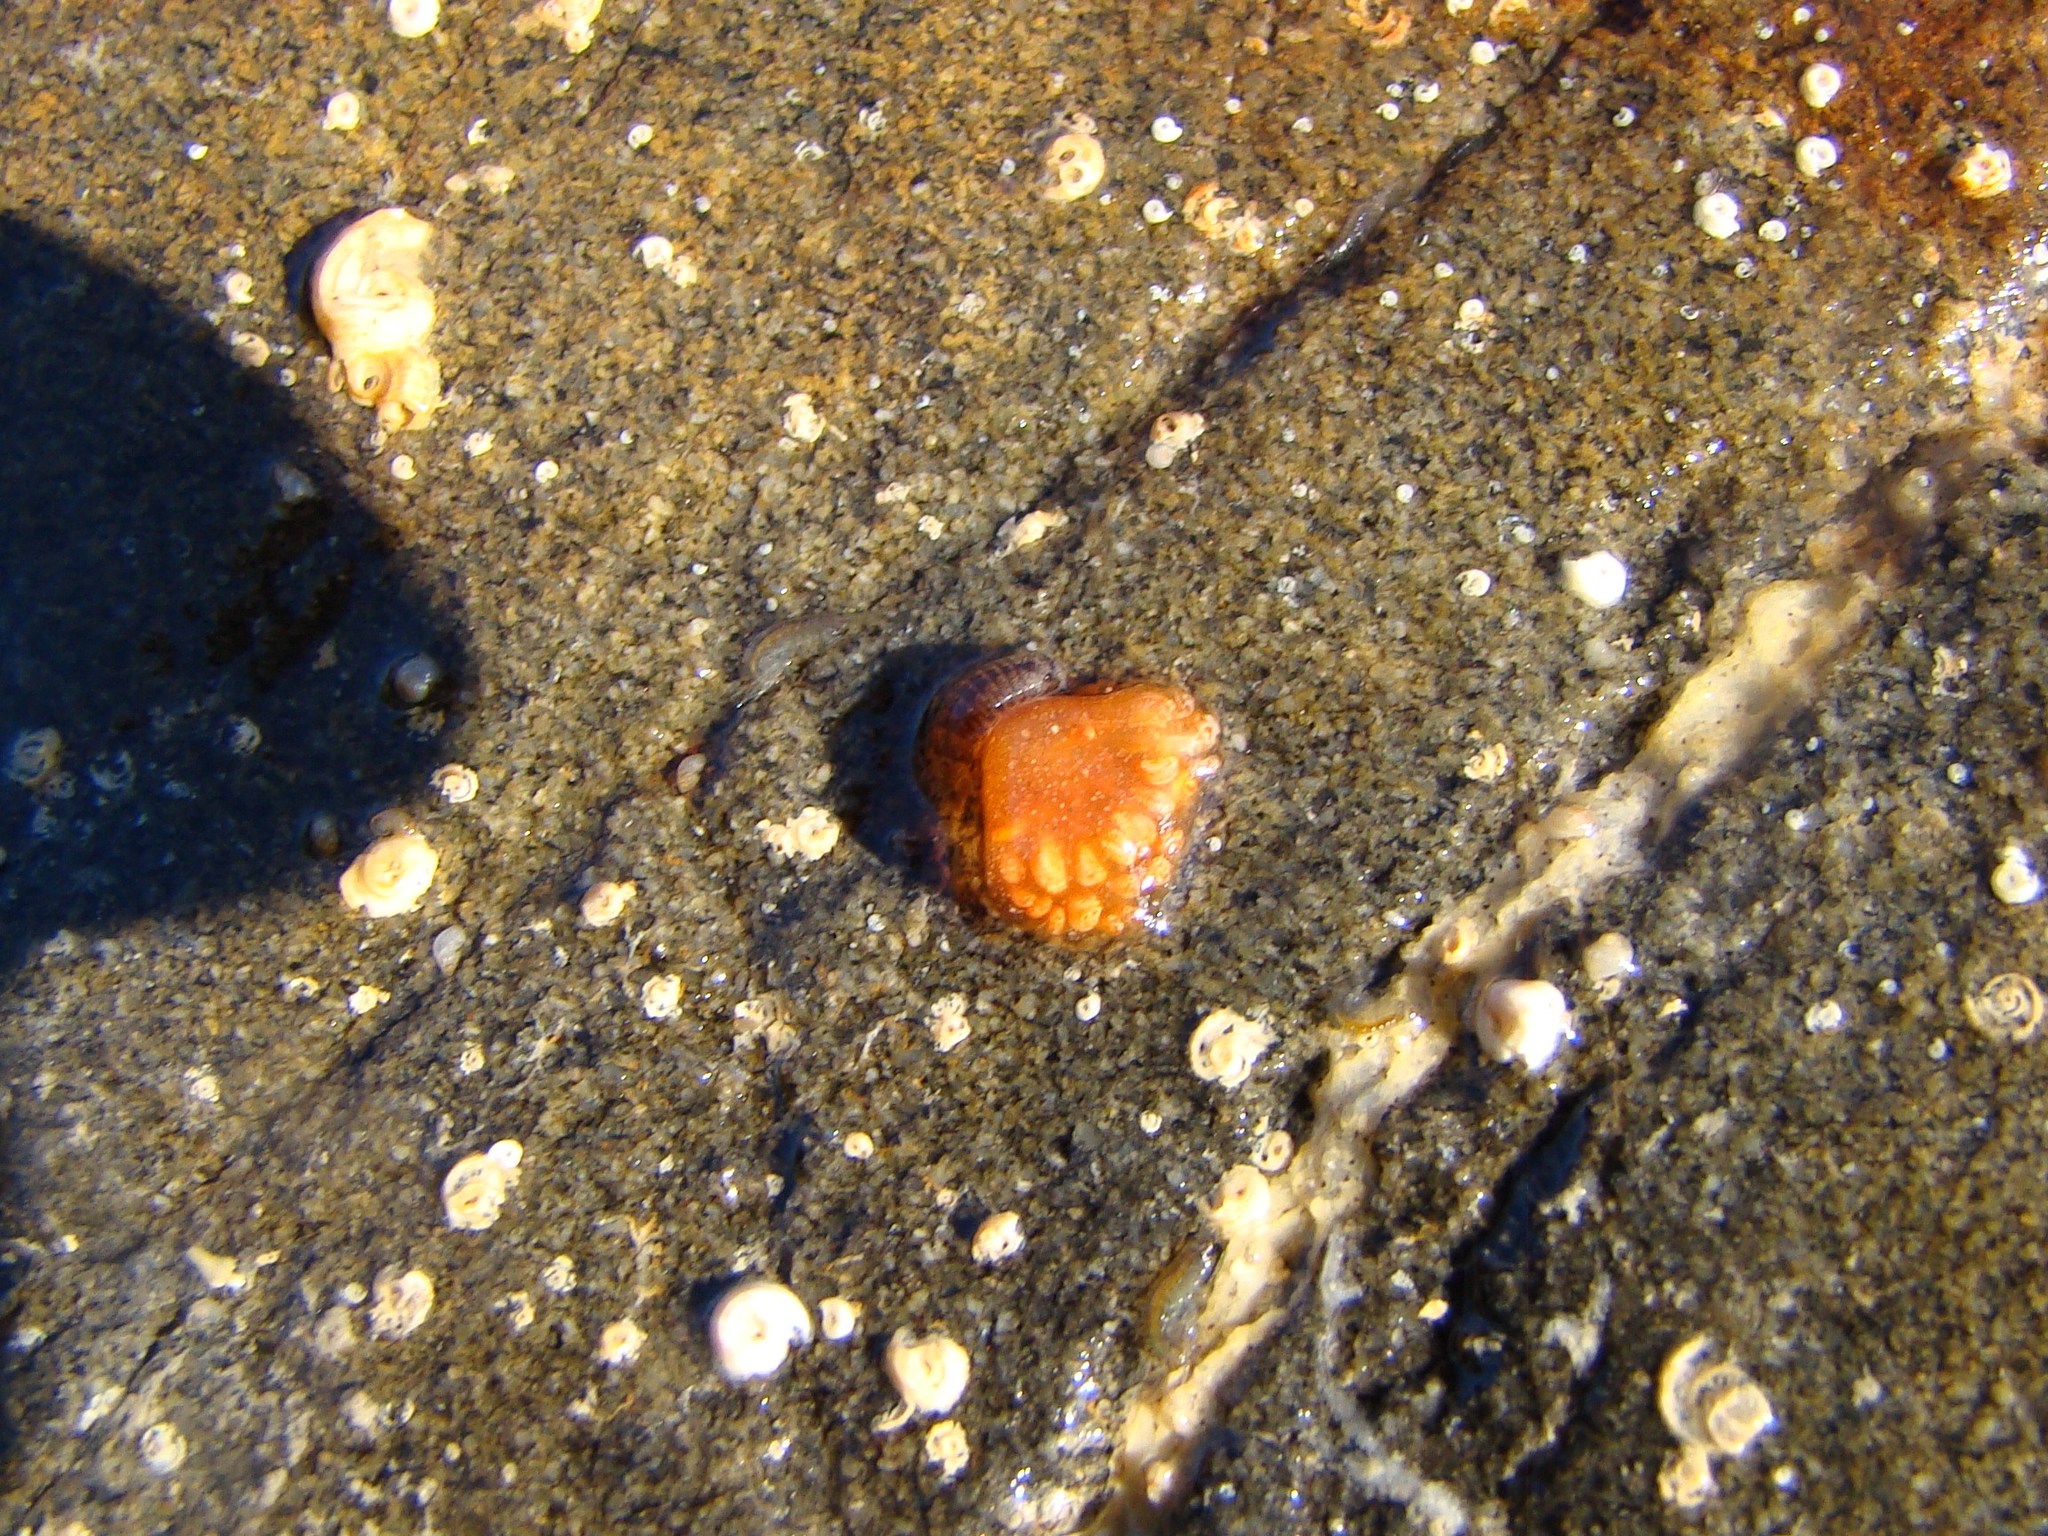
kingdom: Animalia
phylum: Chordata
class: Ascidiacea
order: Aplousobranchia
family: Polyclinidae
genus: Aplidium
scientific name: Aplidium benhami
